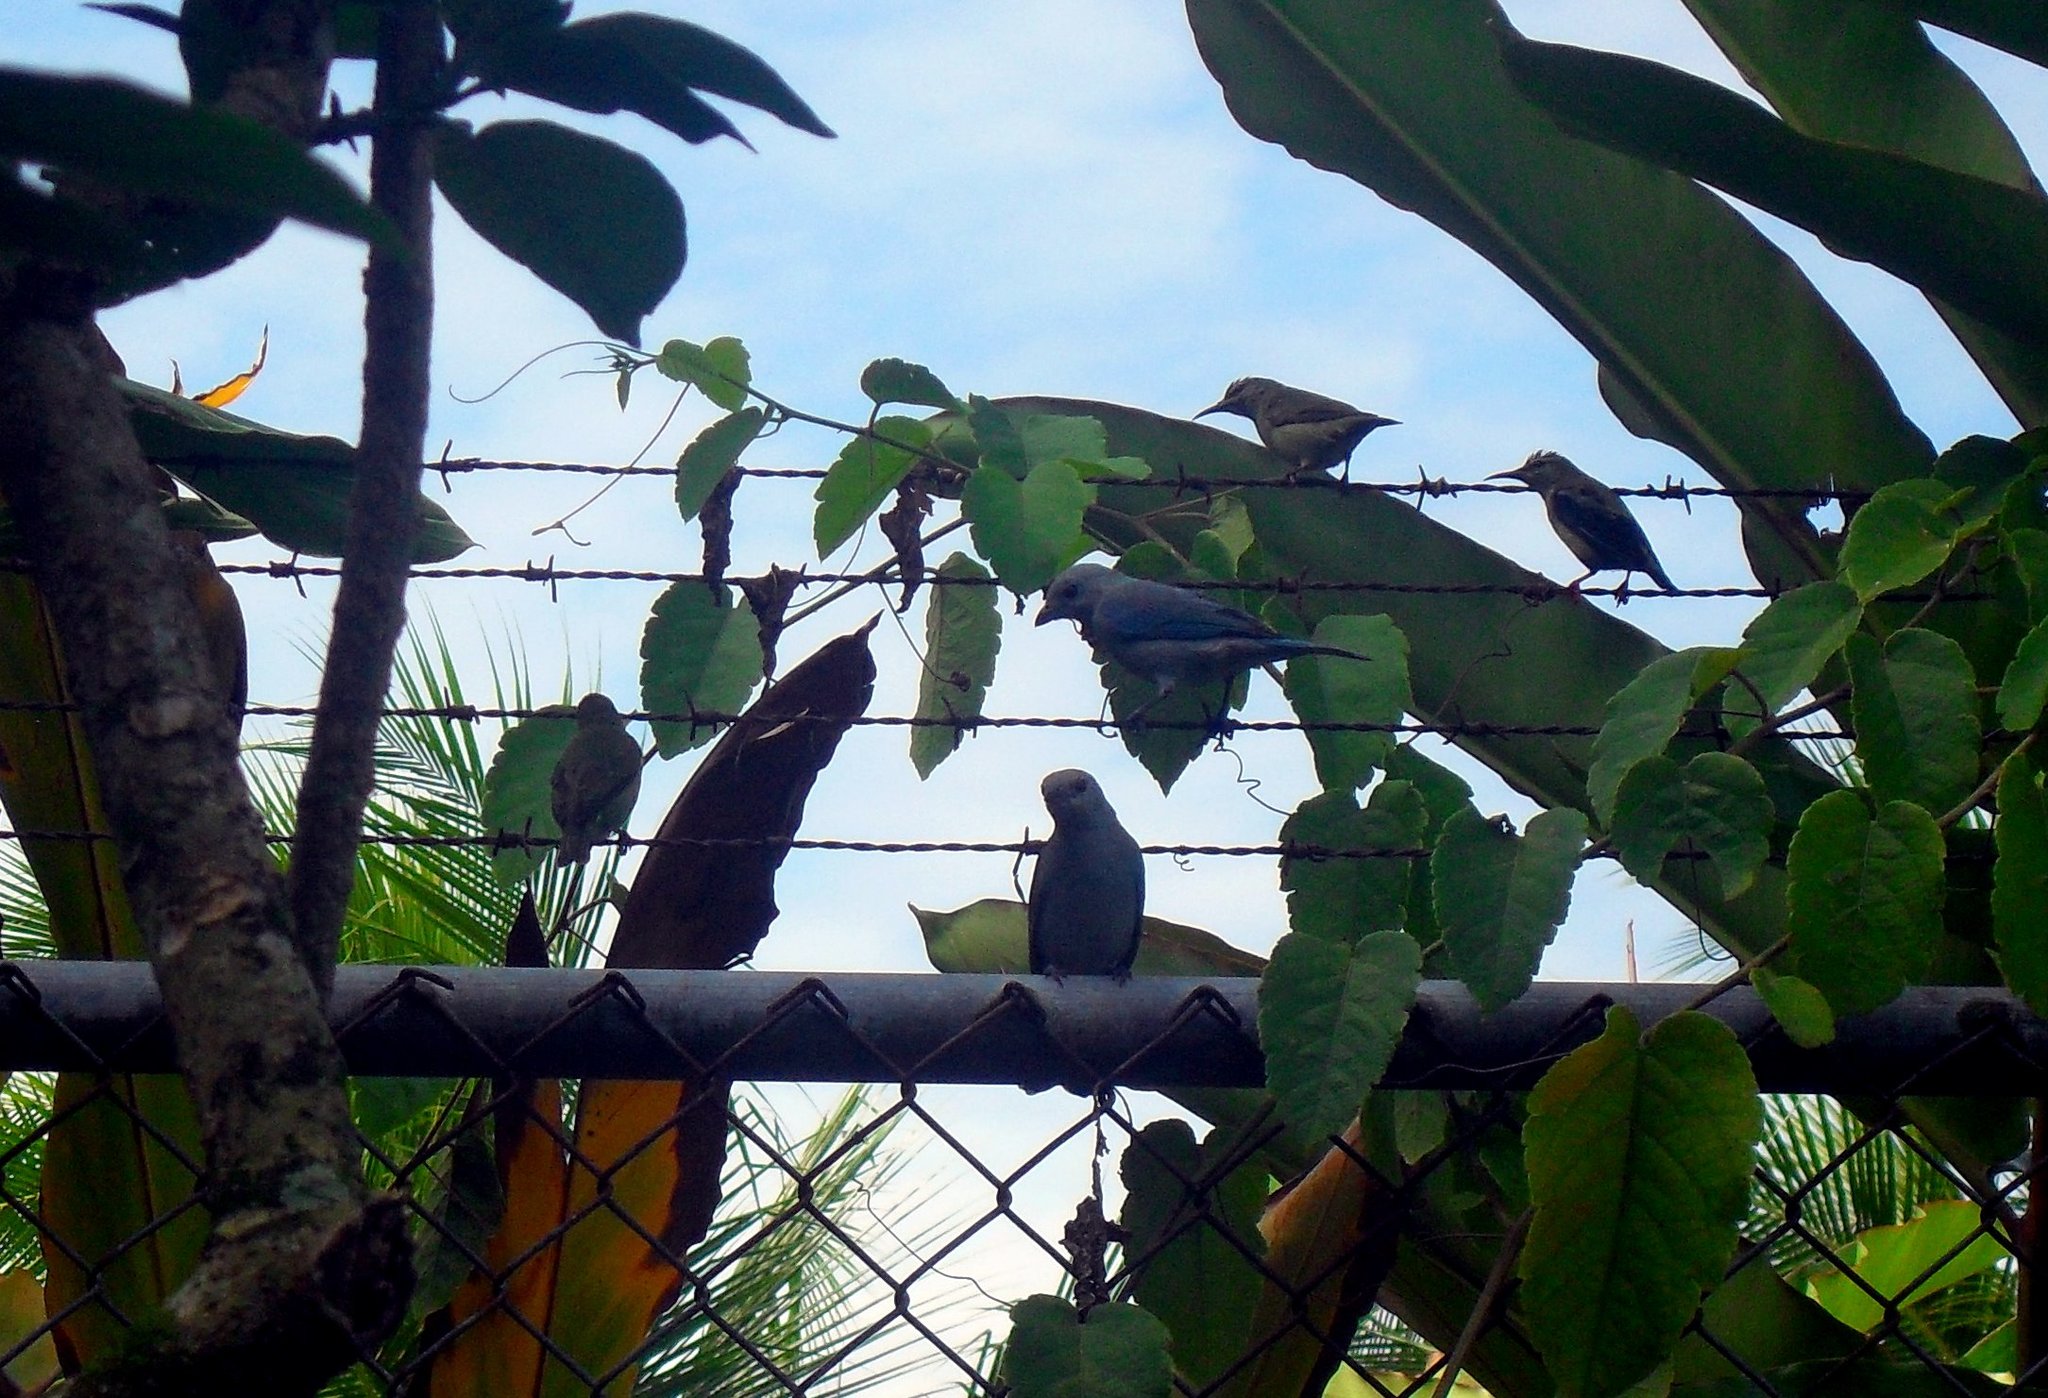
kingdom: Animalia
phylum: Chordata
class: Aves
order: Passeriformes
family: Thraupidae
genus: Cyanerpes
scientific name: Cyanerpes cyaneus
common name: Red-legged honeycreeper
